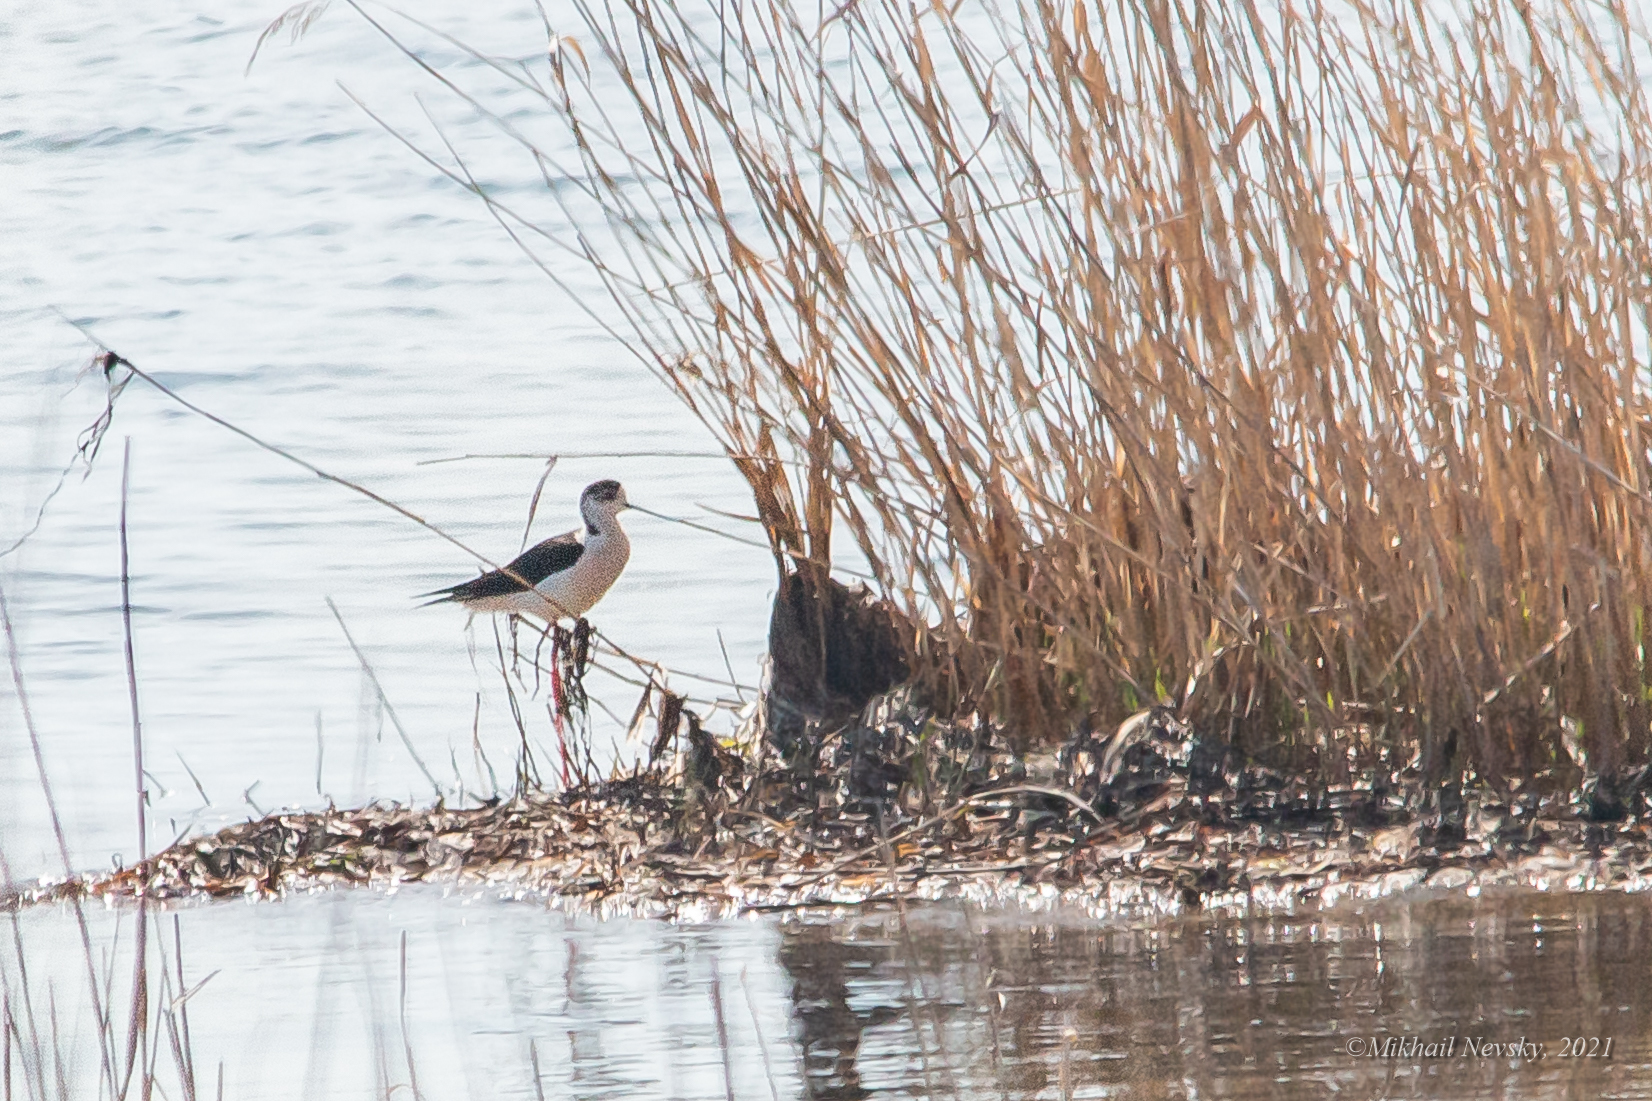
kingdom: Animalia
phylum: Chordata
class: Aves
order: Charadriiformes
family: Recurvirostridae
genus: Himantopus
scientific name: Himantopus himantopus
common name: Black-winged stilt
